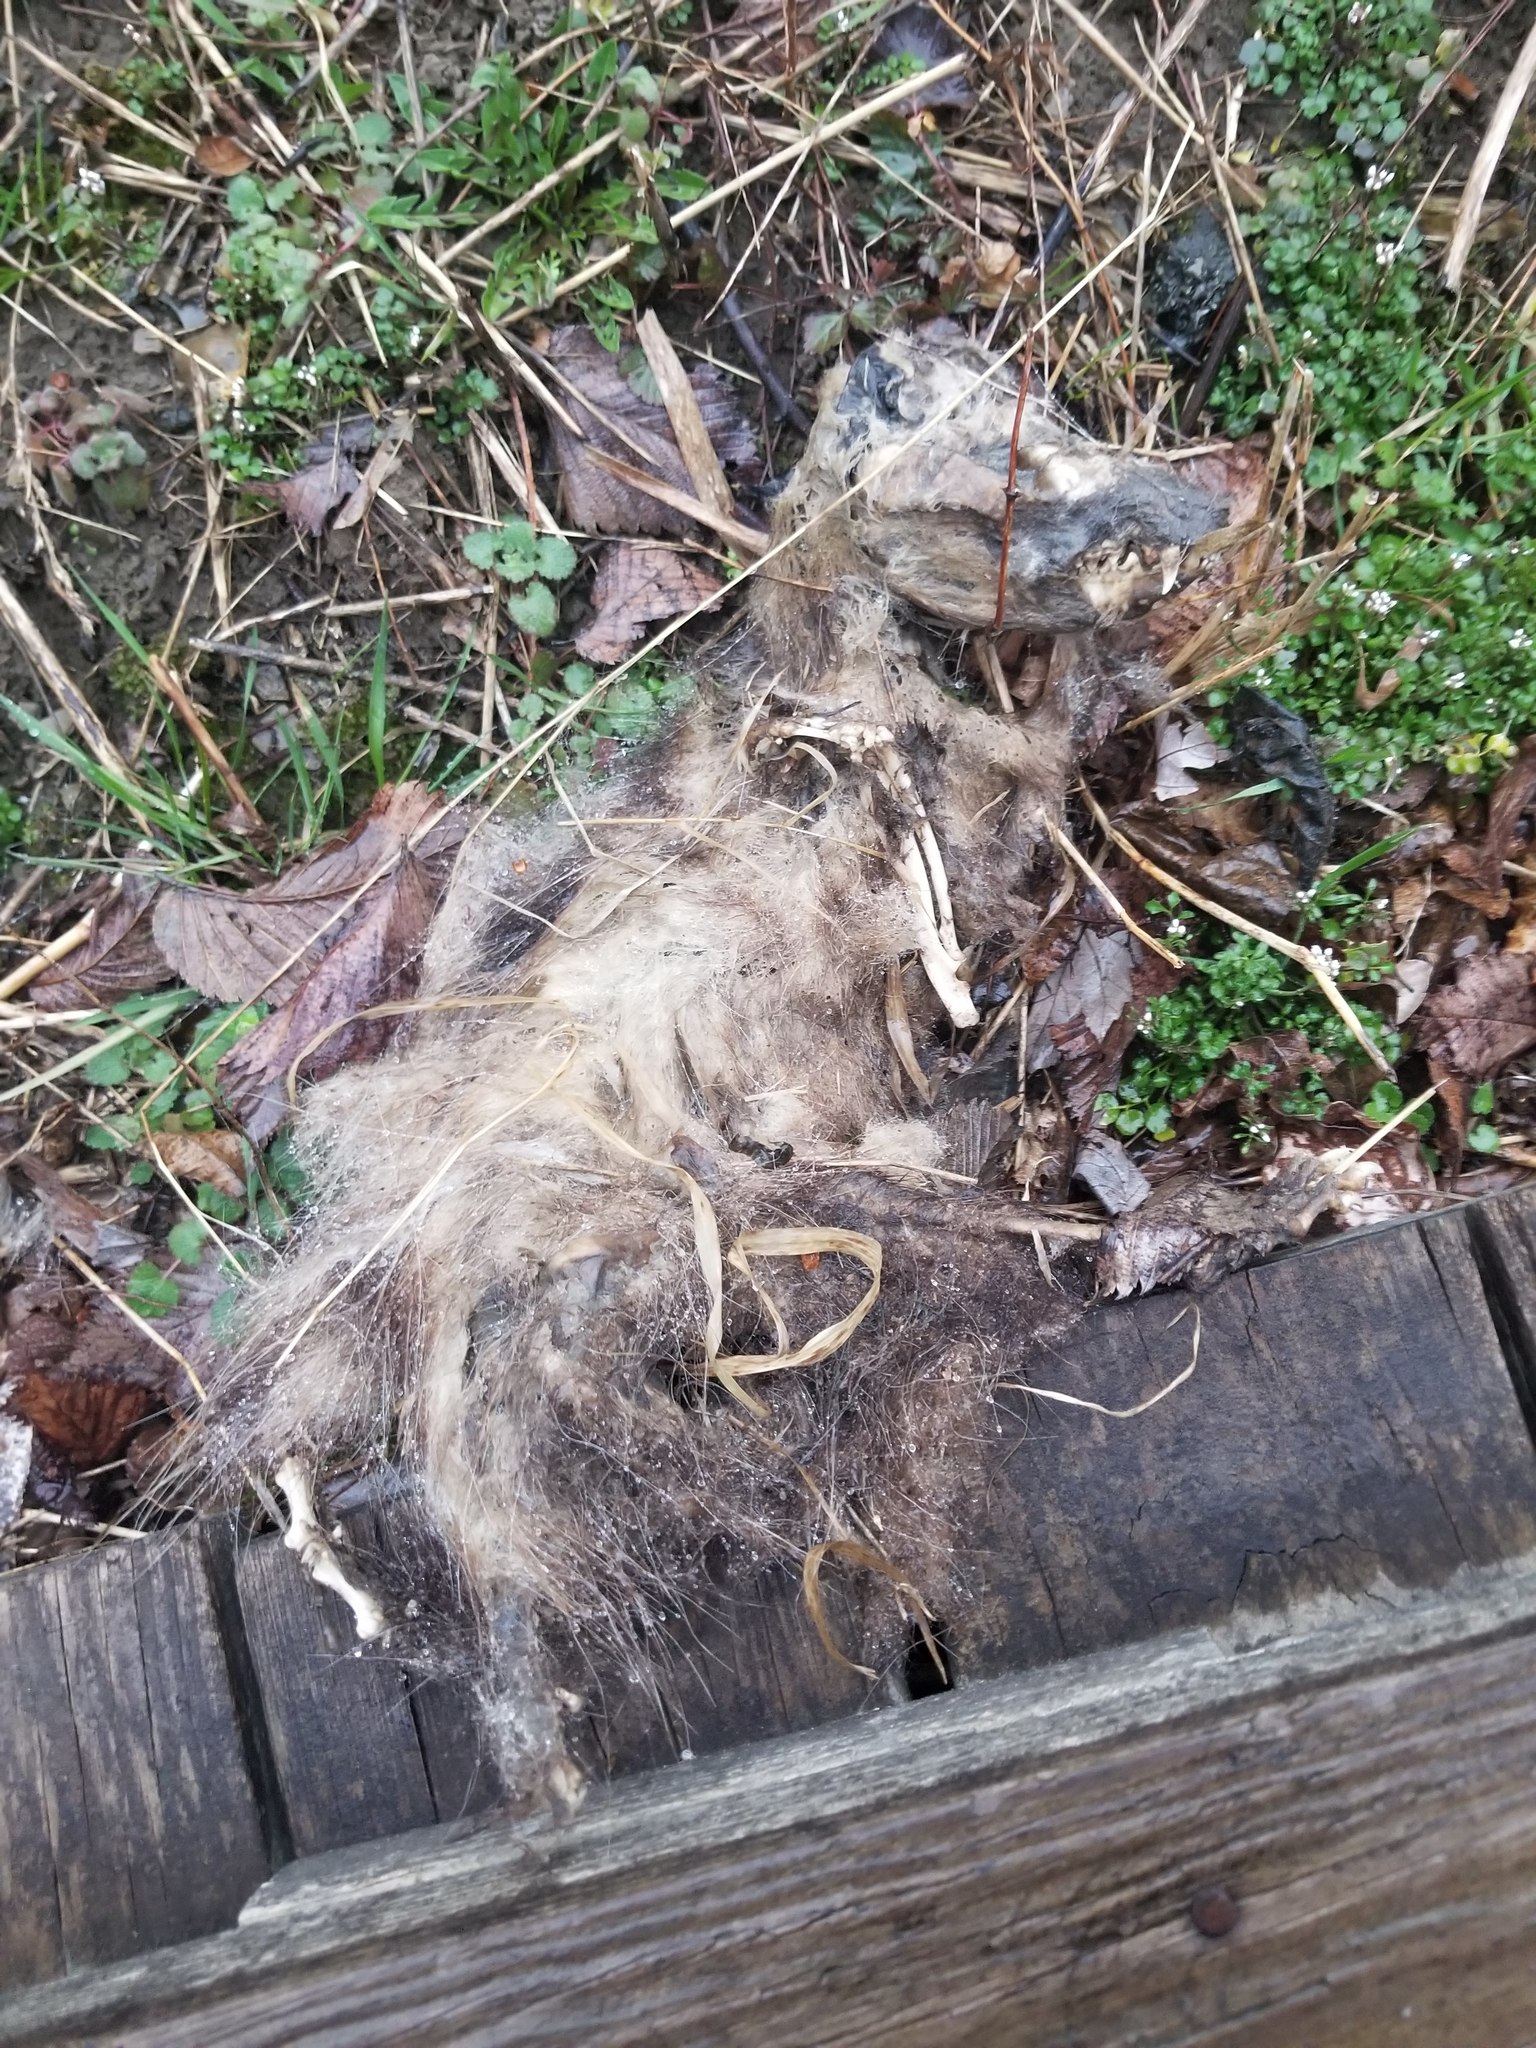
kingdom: Animalia
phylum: Chordata
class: Mammalia
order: Didelphimorphia
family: Didelphidae
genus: Didelphis
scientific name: Didelphis virginiana
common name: Virginia opossum
